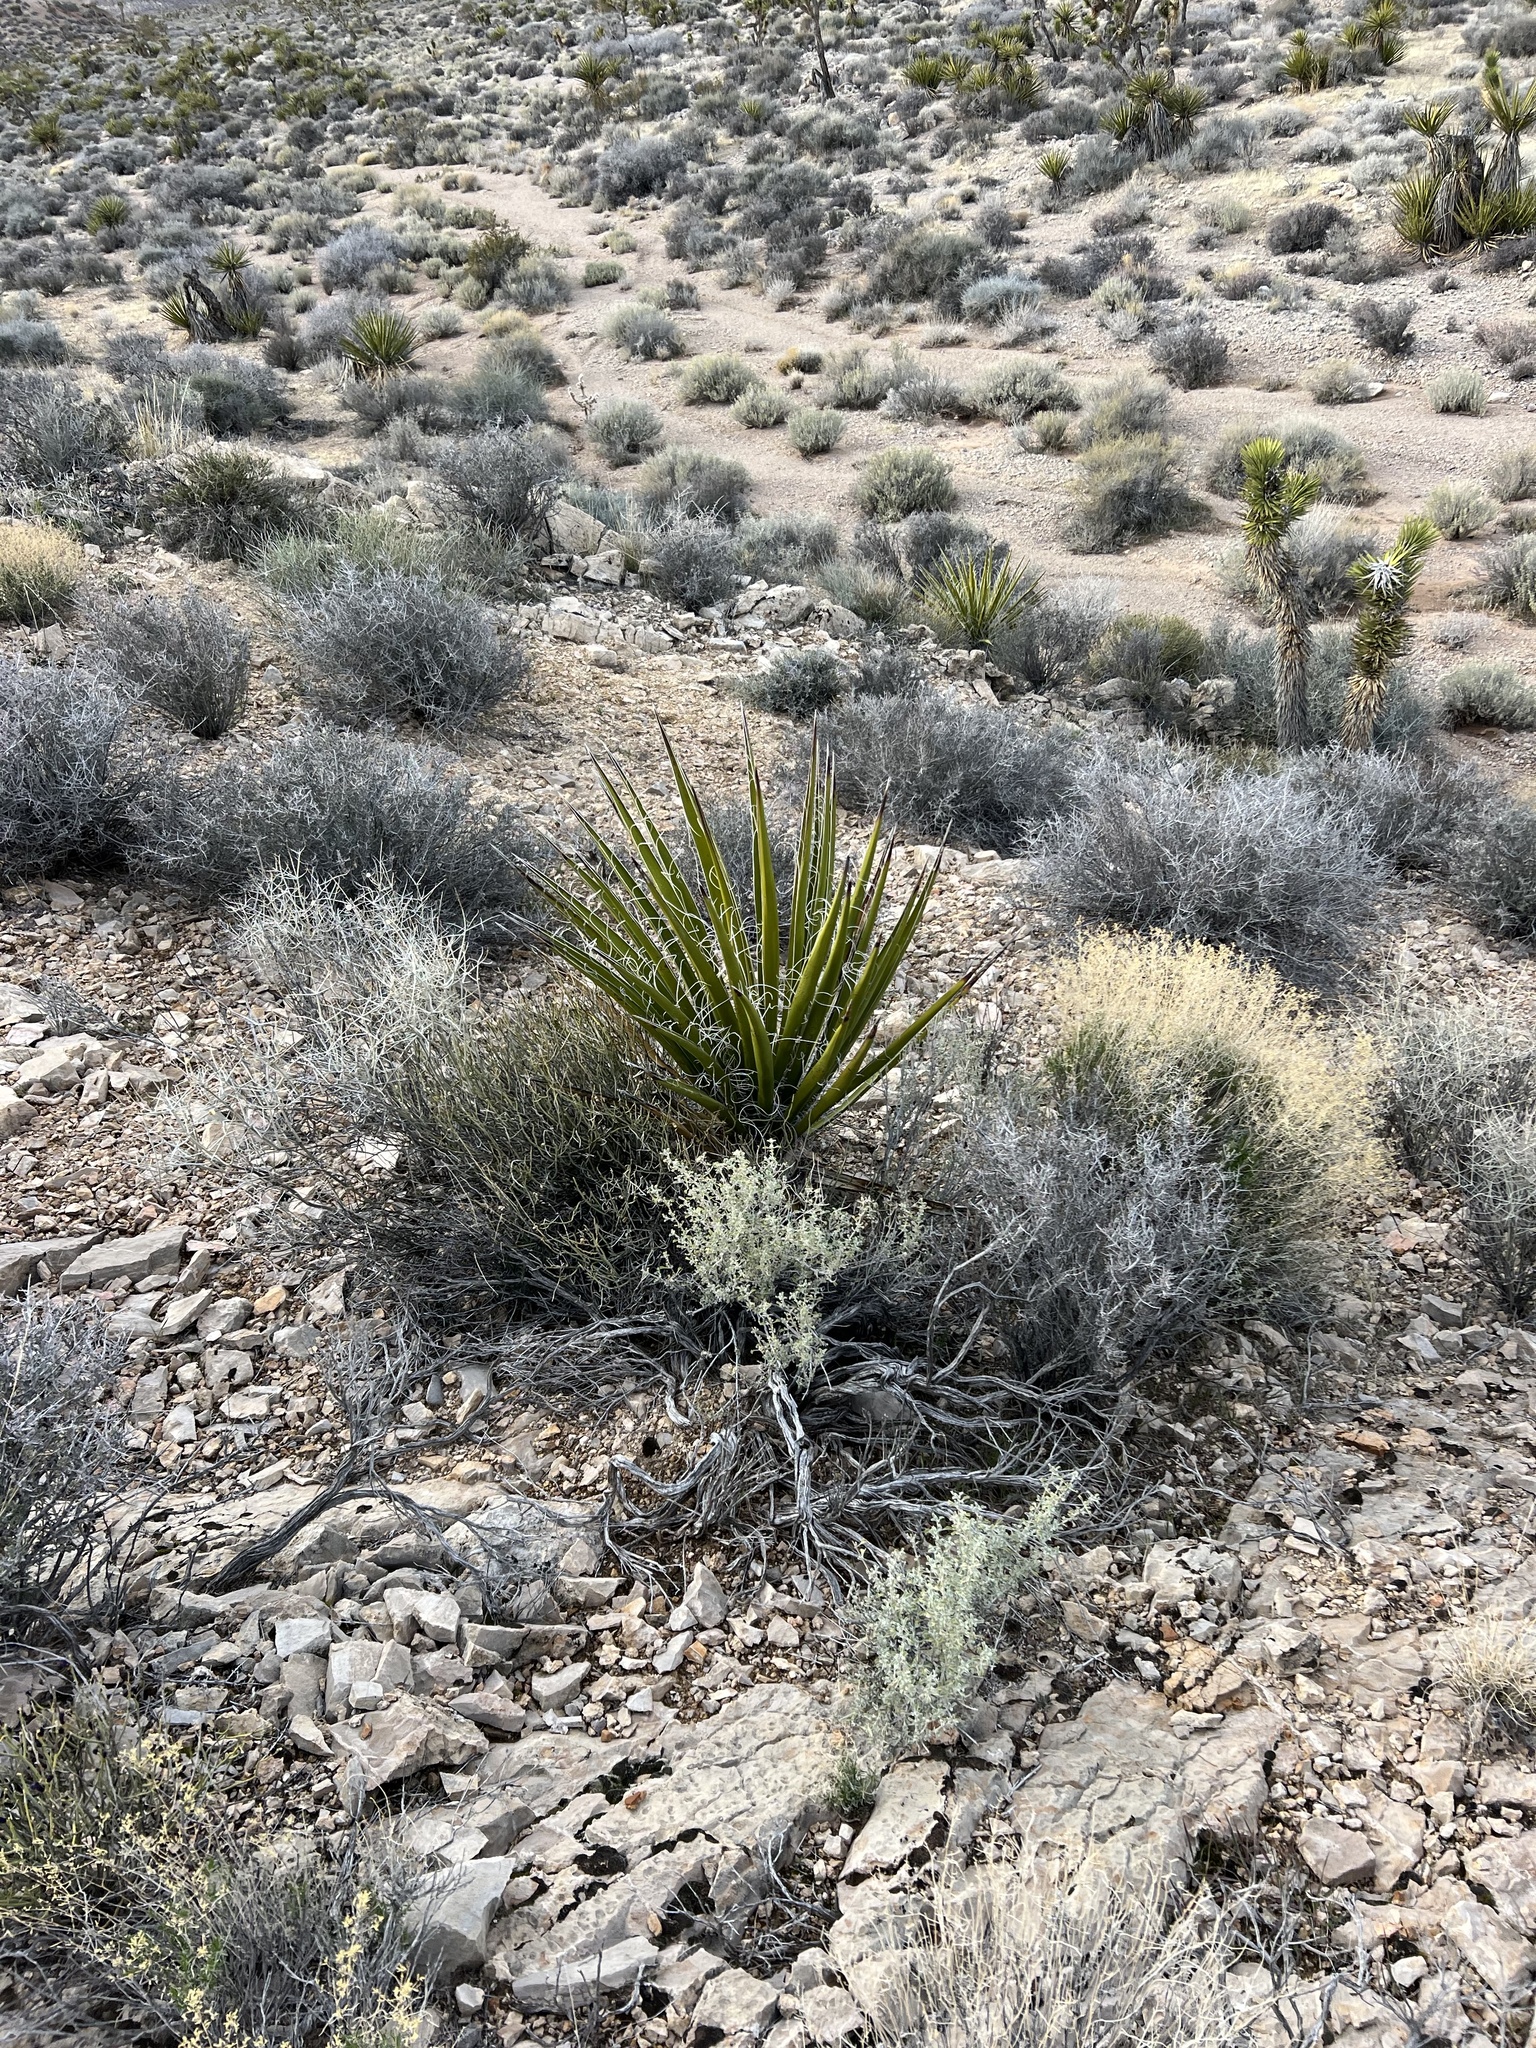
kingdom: Plantae
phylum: Tracheophyta
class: Liliopsida
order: Asparagales
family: Asparagaceae
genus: Yucca
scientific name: Yucca schidigera
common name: Mojave yucca
